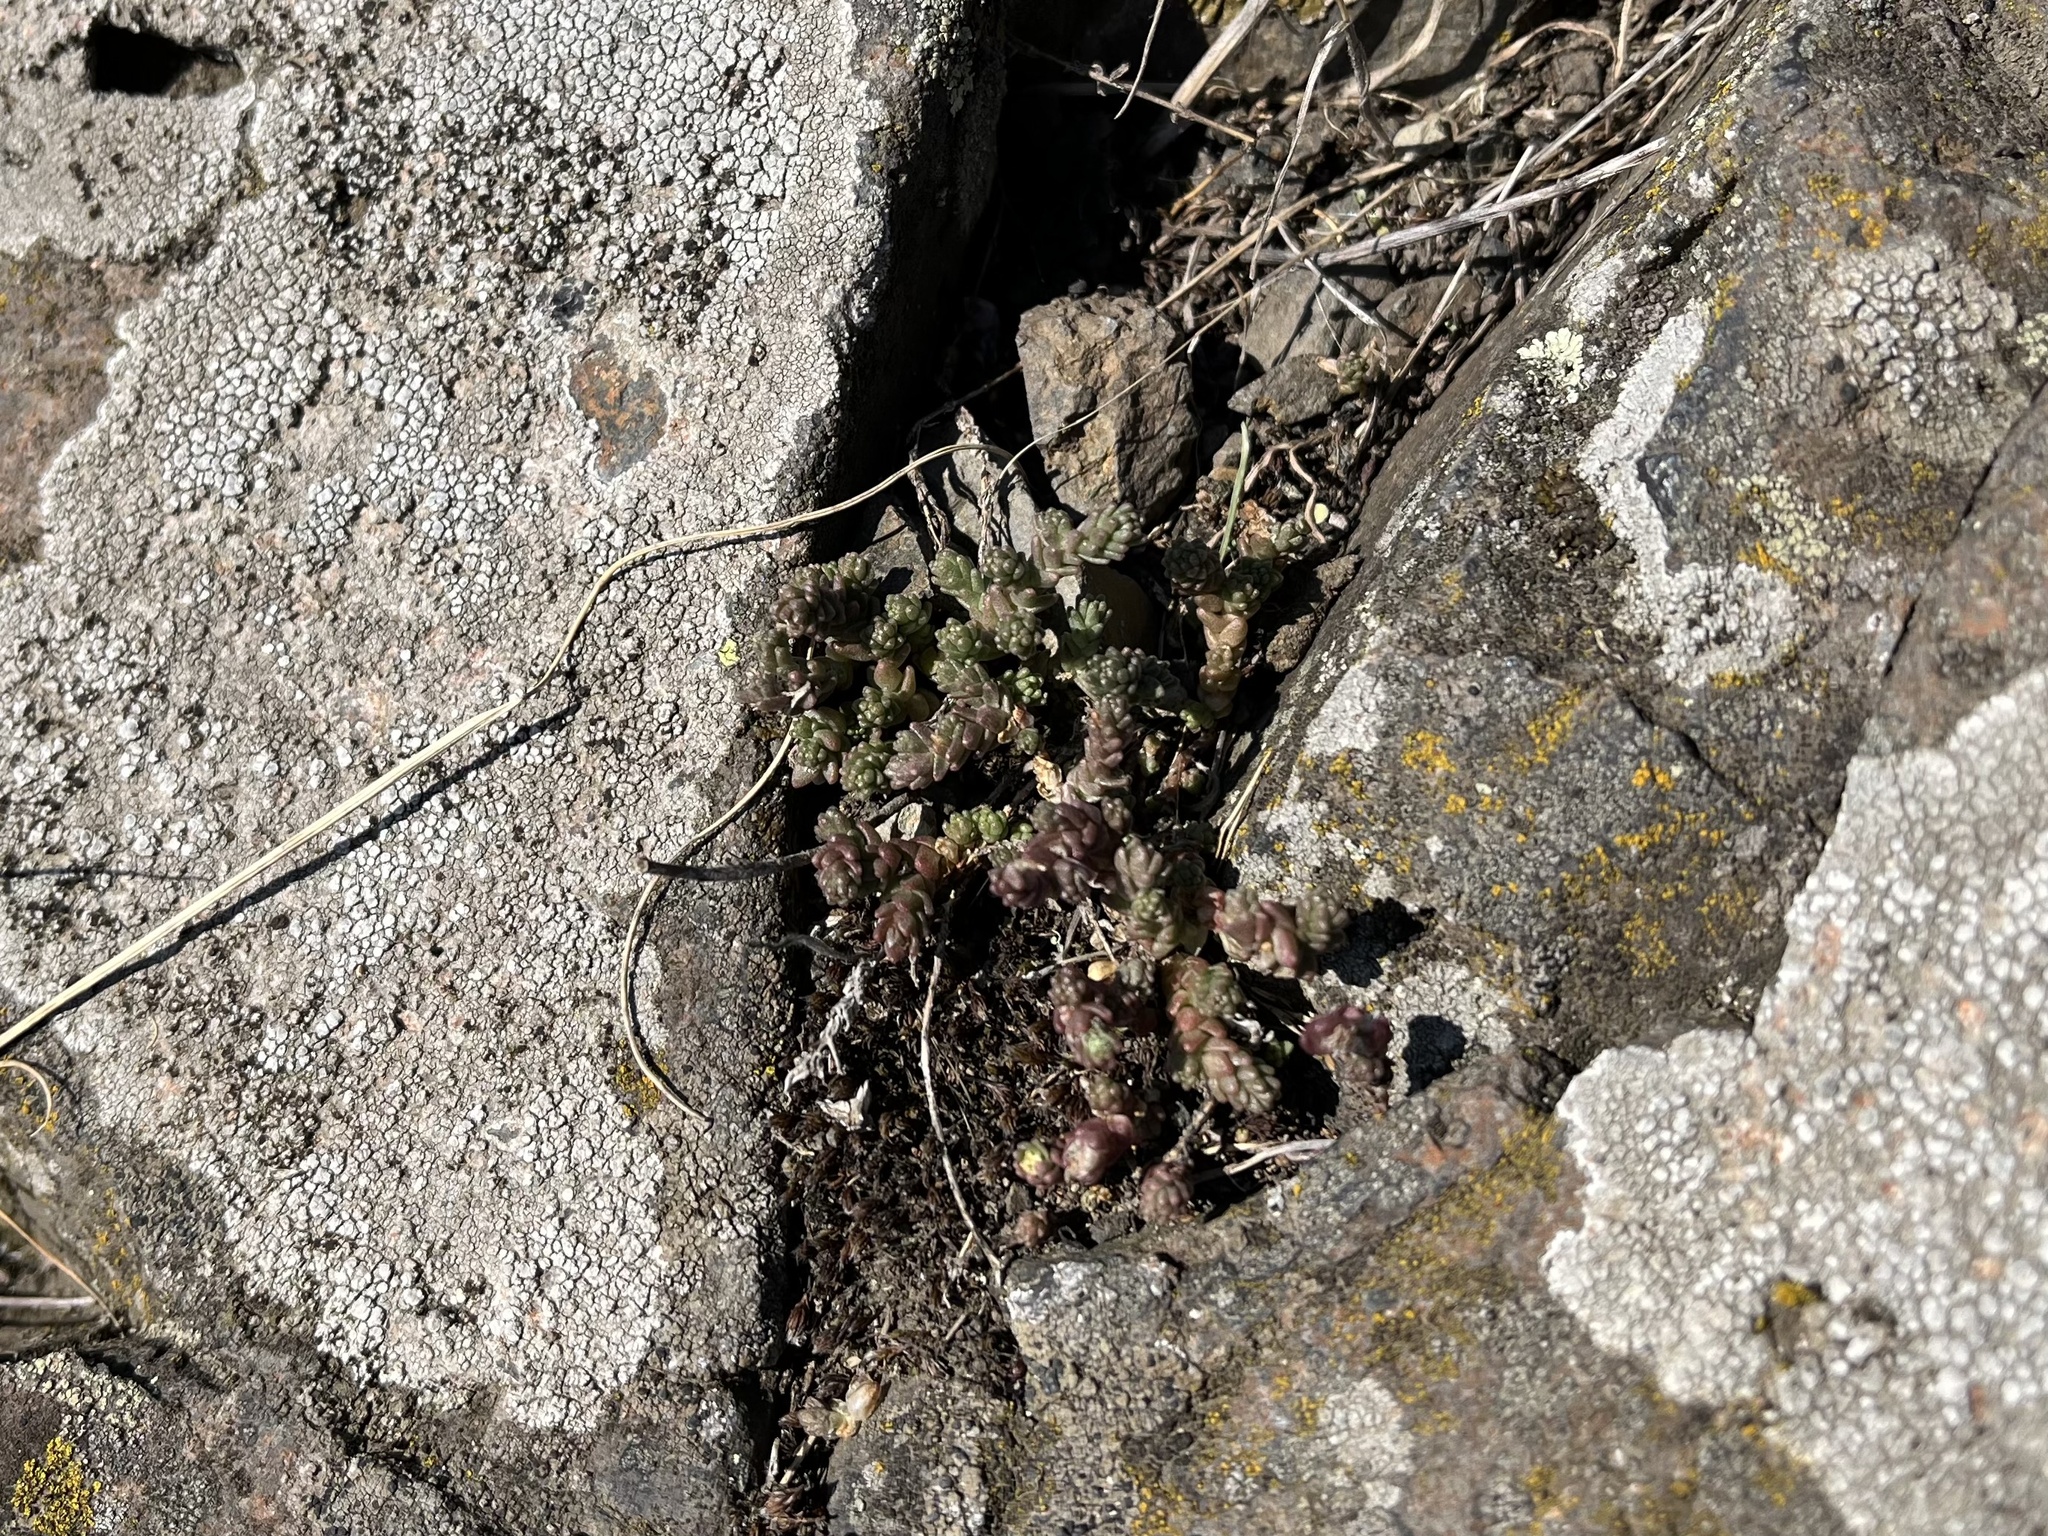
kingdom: Plantae
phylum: Tracheophyta
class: Magnoliopsida
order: Saxifragales
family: Crassulaceae
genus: Sedum
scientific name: Sedum acre
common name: Biting stonecrop
